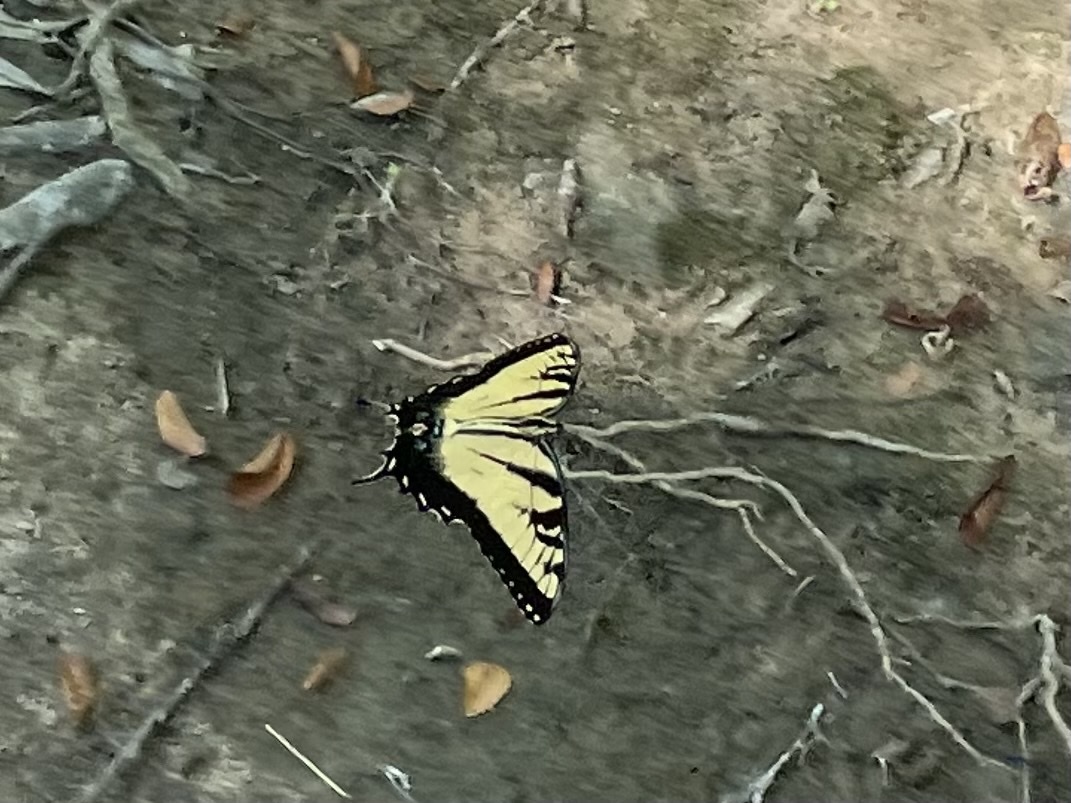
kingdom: Animalia
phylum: Arthropoda
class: Insecta
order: Lepidoptera
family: Papilionidae
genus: Papilio
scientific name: Papilio glaucus
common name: Tiger swallowtail
